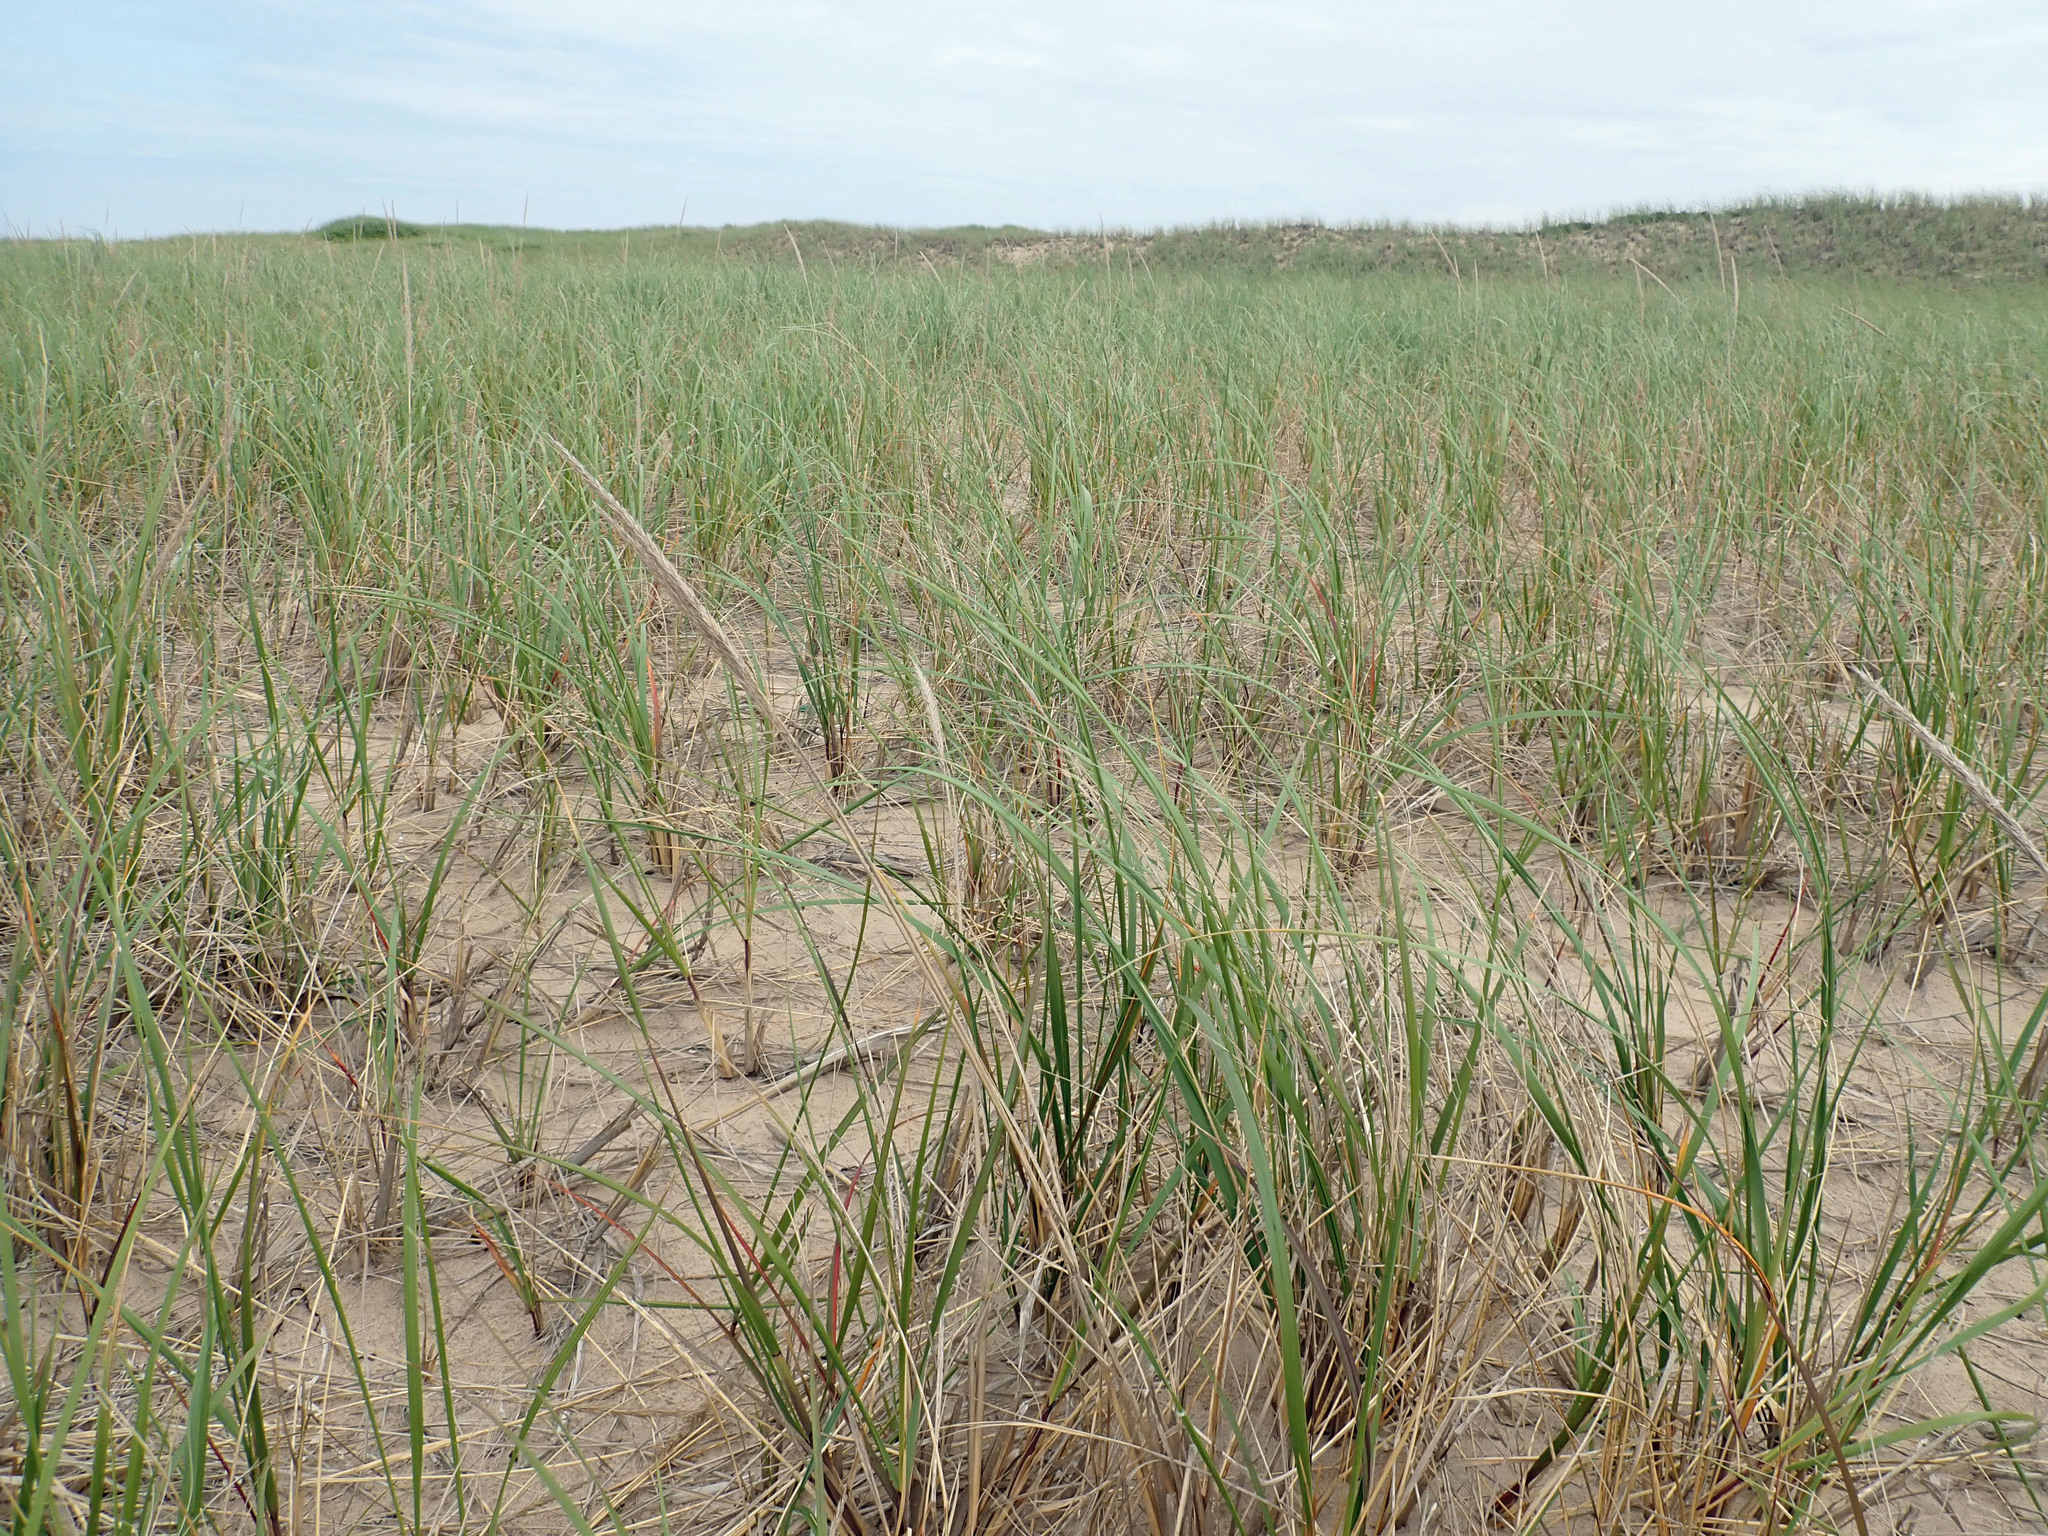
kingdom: Plantae
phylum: Tracheophyta
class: Liliopsida
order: Poales
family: Poaceae
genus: Calamagrostis
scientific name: Calamagrostis breviligulata
